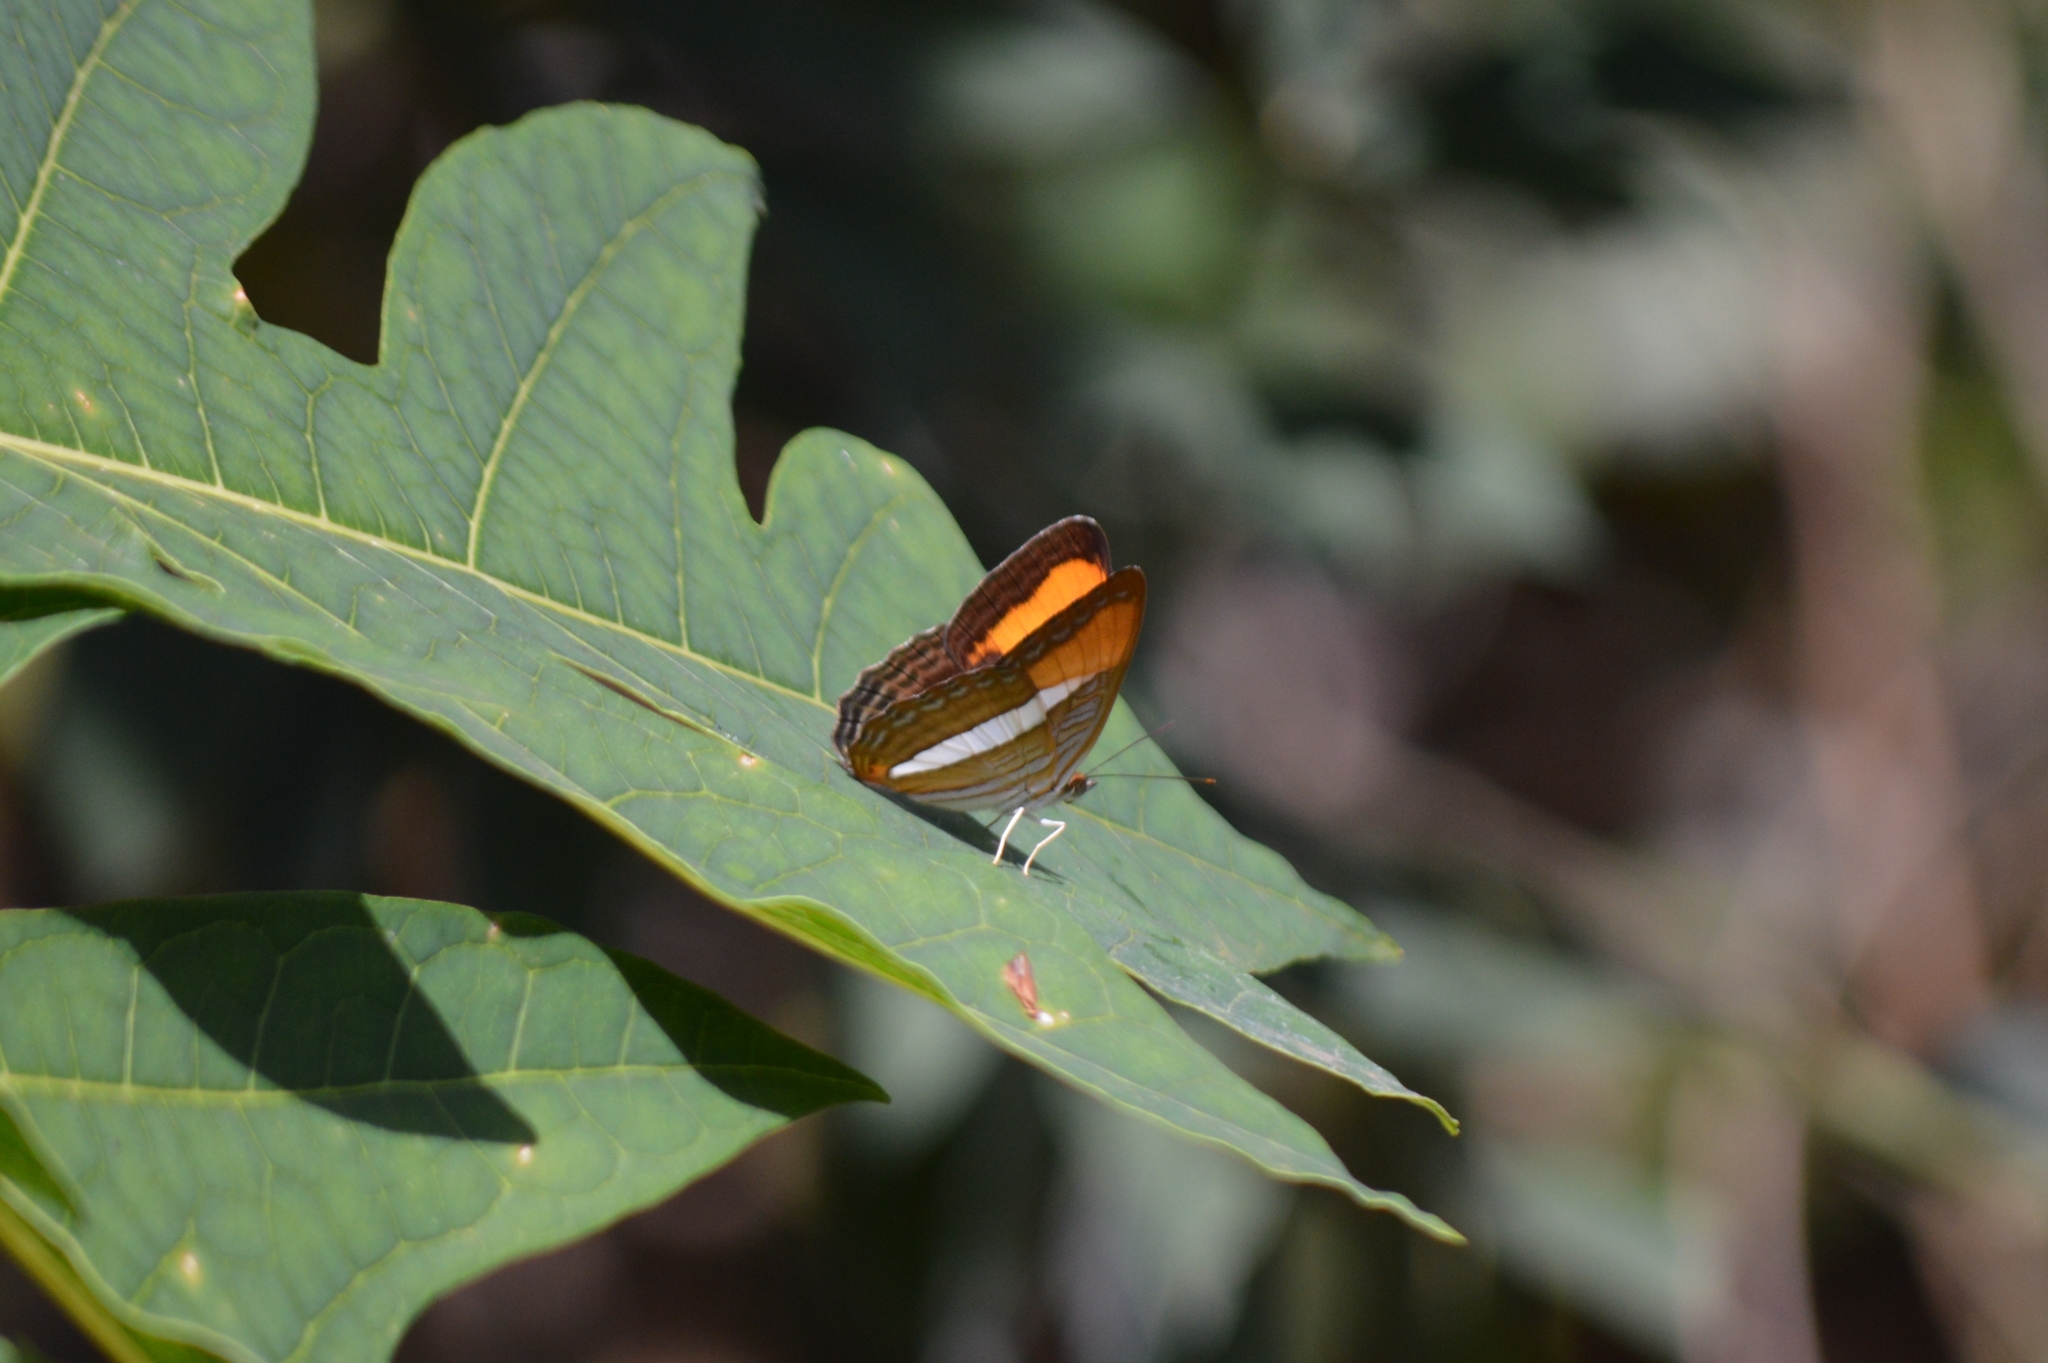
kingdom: Animalia
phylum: Arthropoda
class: Insecta
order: Lepidoptera
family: Nymphalidae
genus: Limenitis
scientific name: Limenitis cytherea
